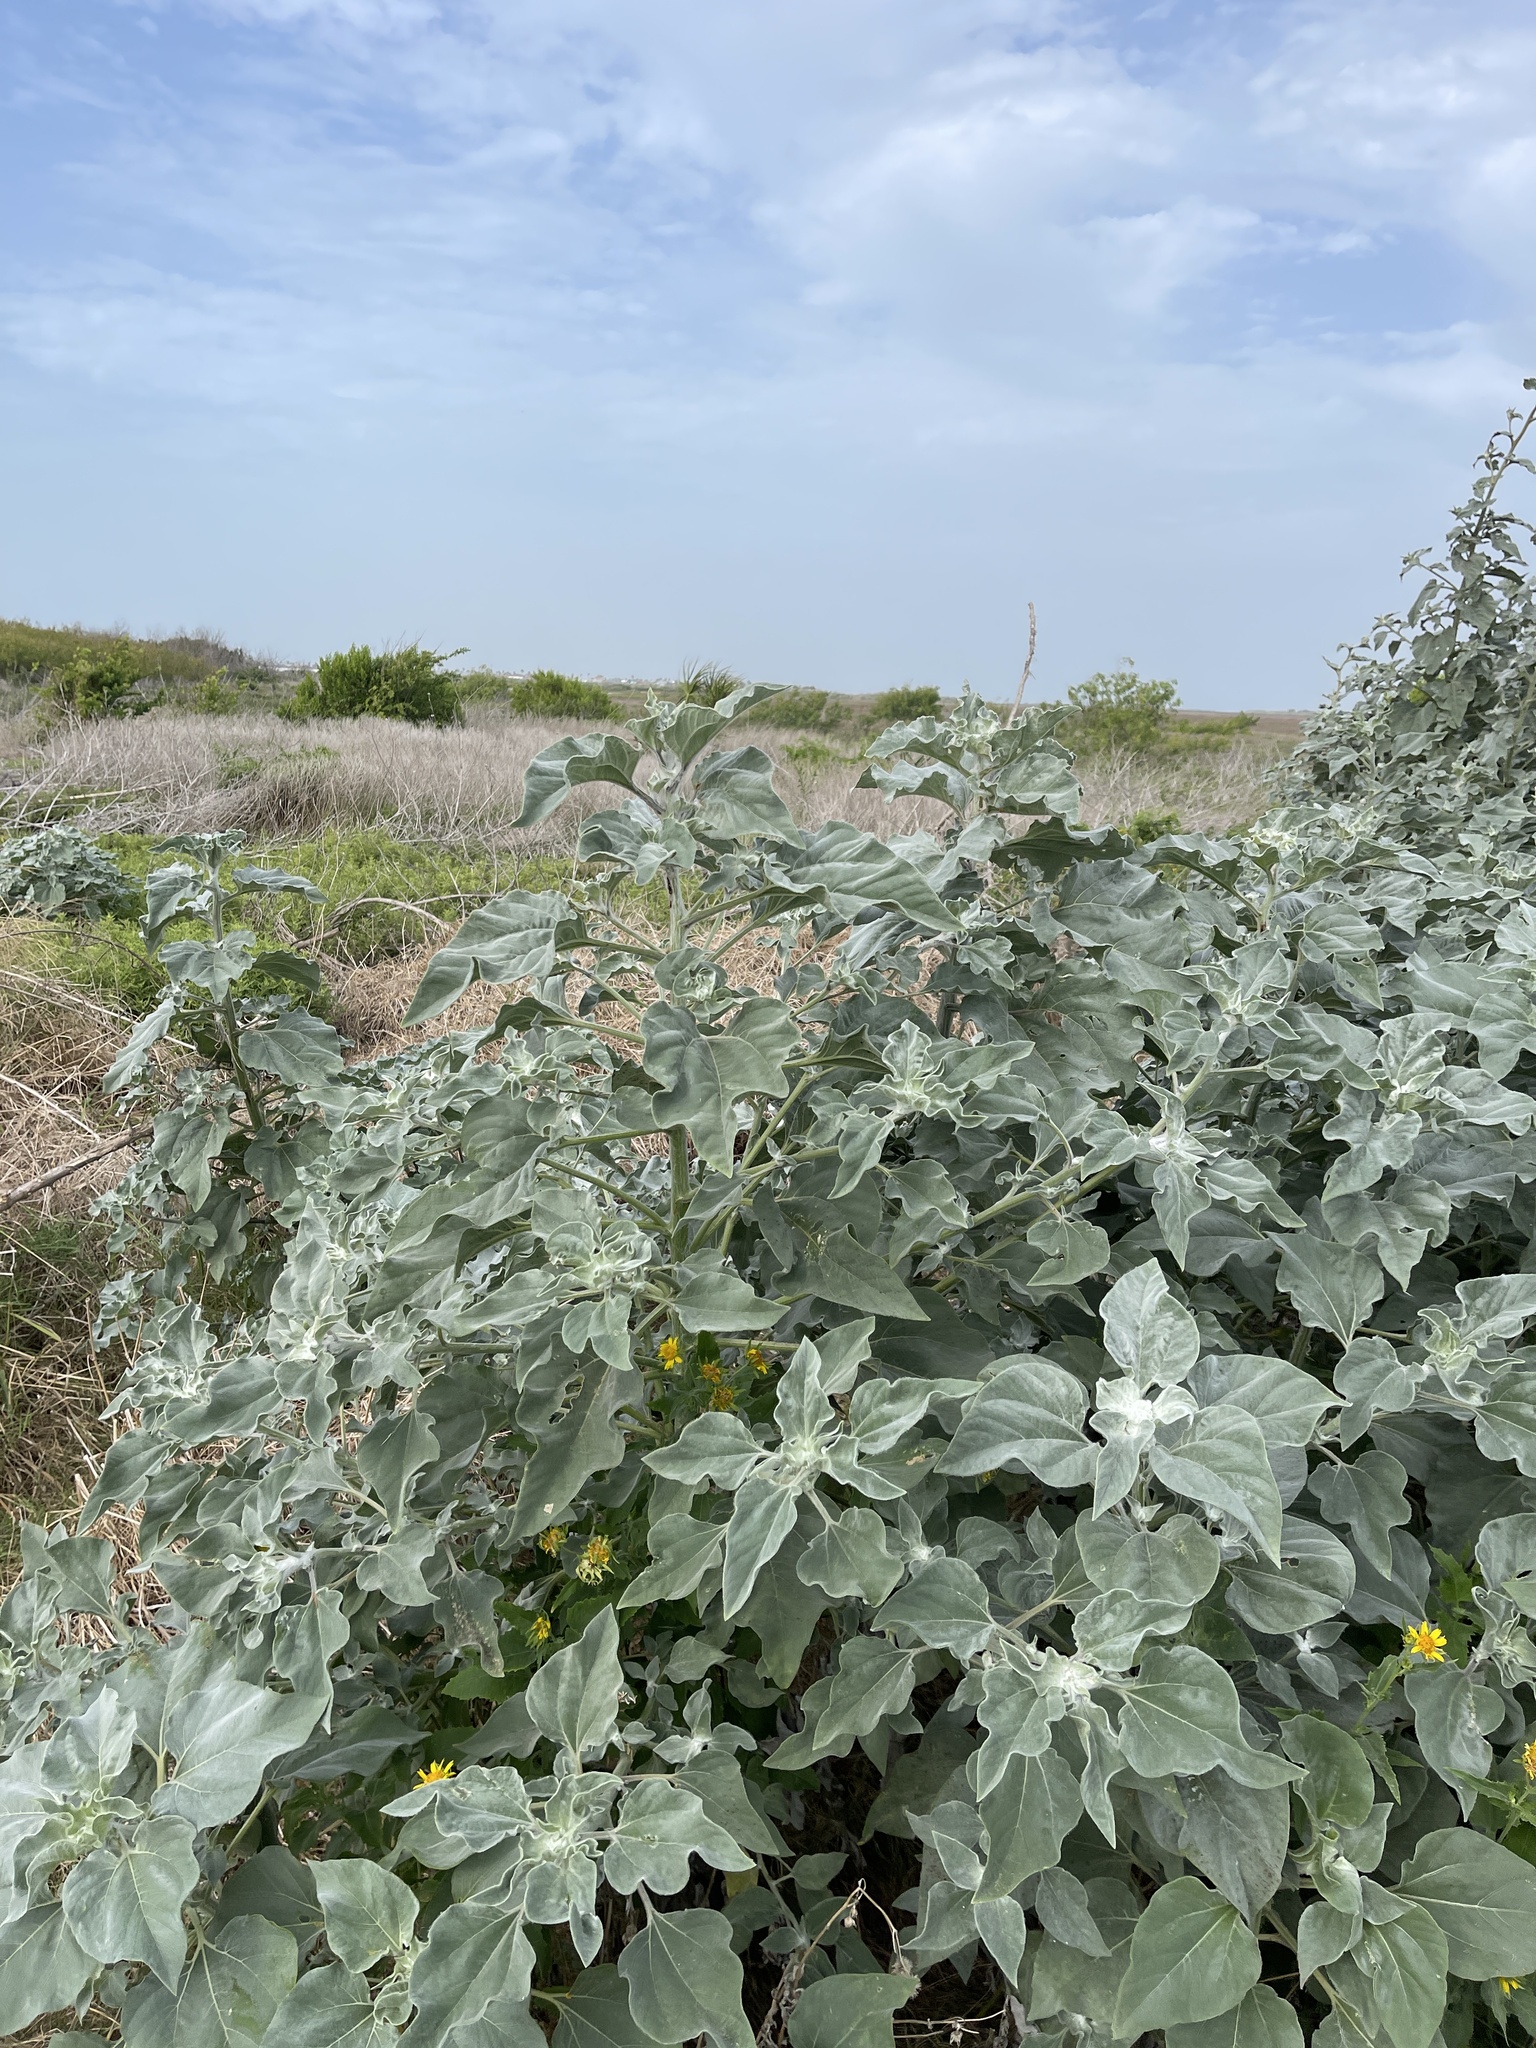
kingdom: Plantae
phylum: Tracheophyta
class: Magnoliopsida
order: Asterales
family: Asteraceae
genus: Helianthus
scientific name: Helianthus argophyllus
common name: Silverleaf sunflower
